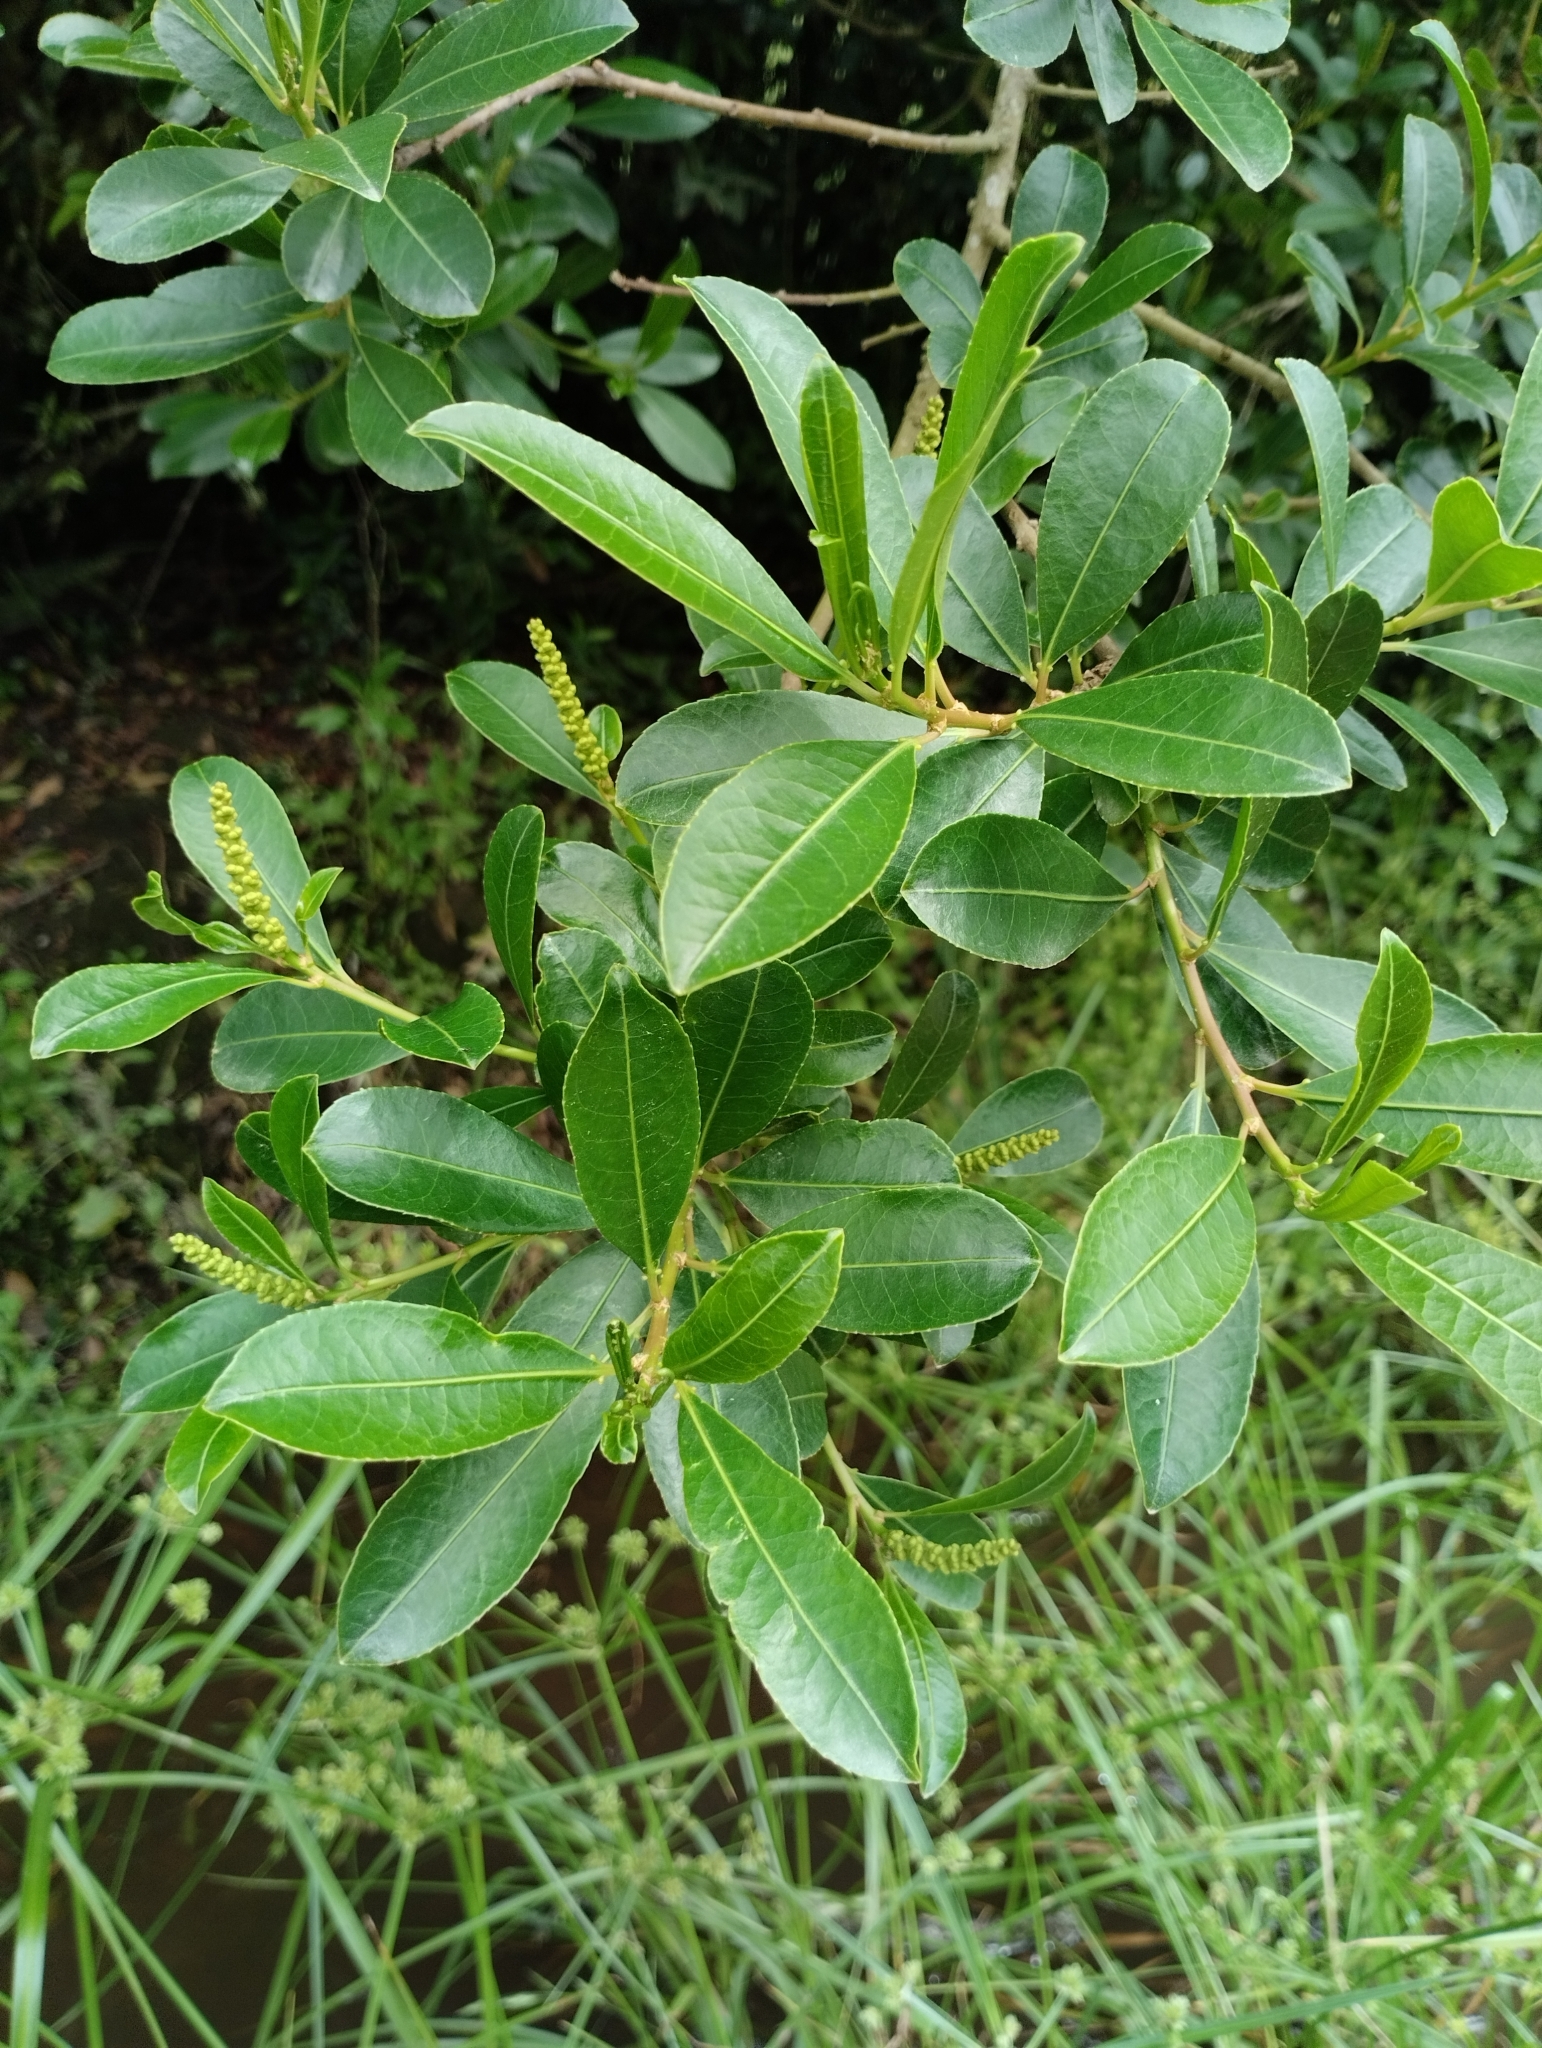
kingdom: Plantae
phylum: Tracheophyta
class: Magnoliopsida
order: Malpighiales
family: Euphorbiaceae
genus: Sapium
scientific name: Sapium glandulosum
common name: Milktree
